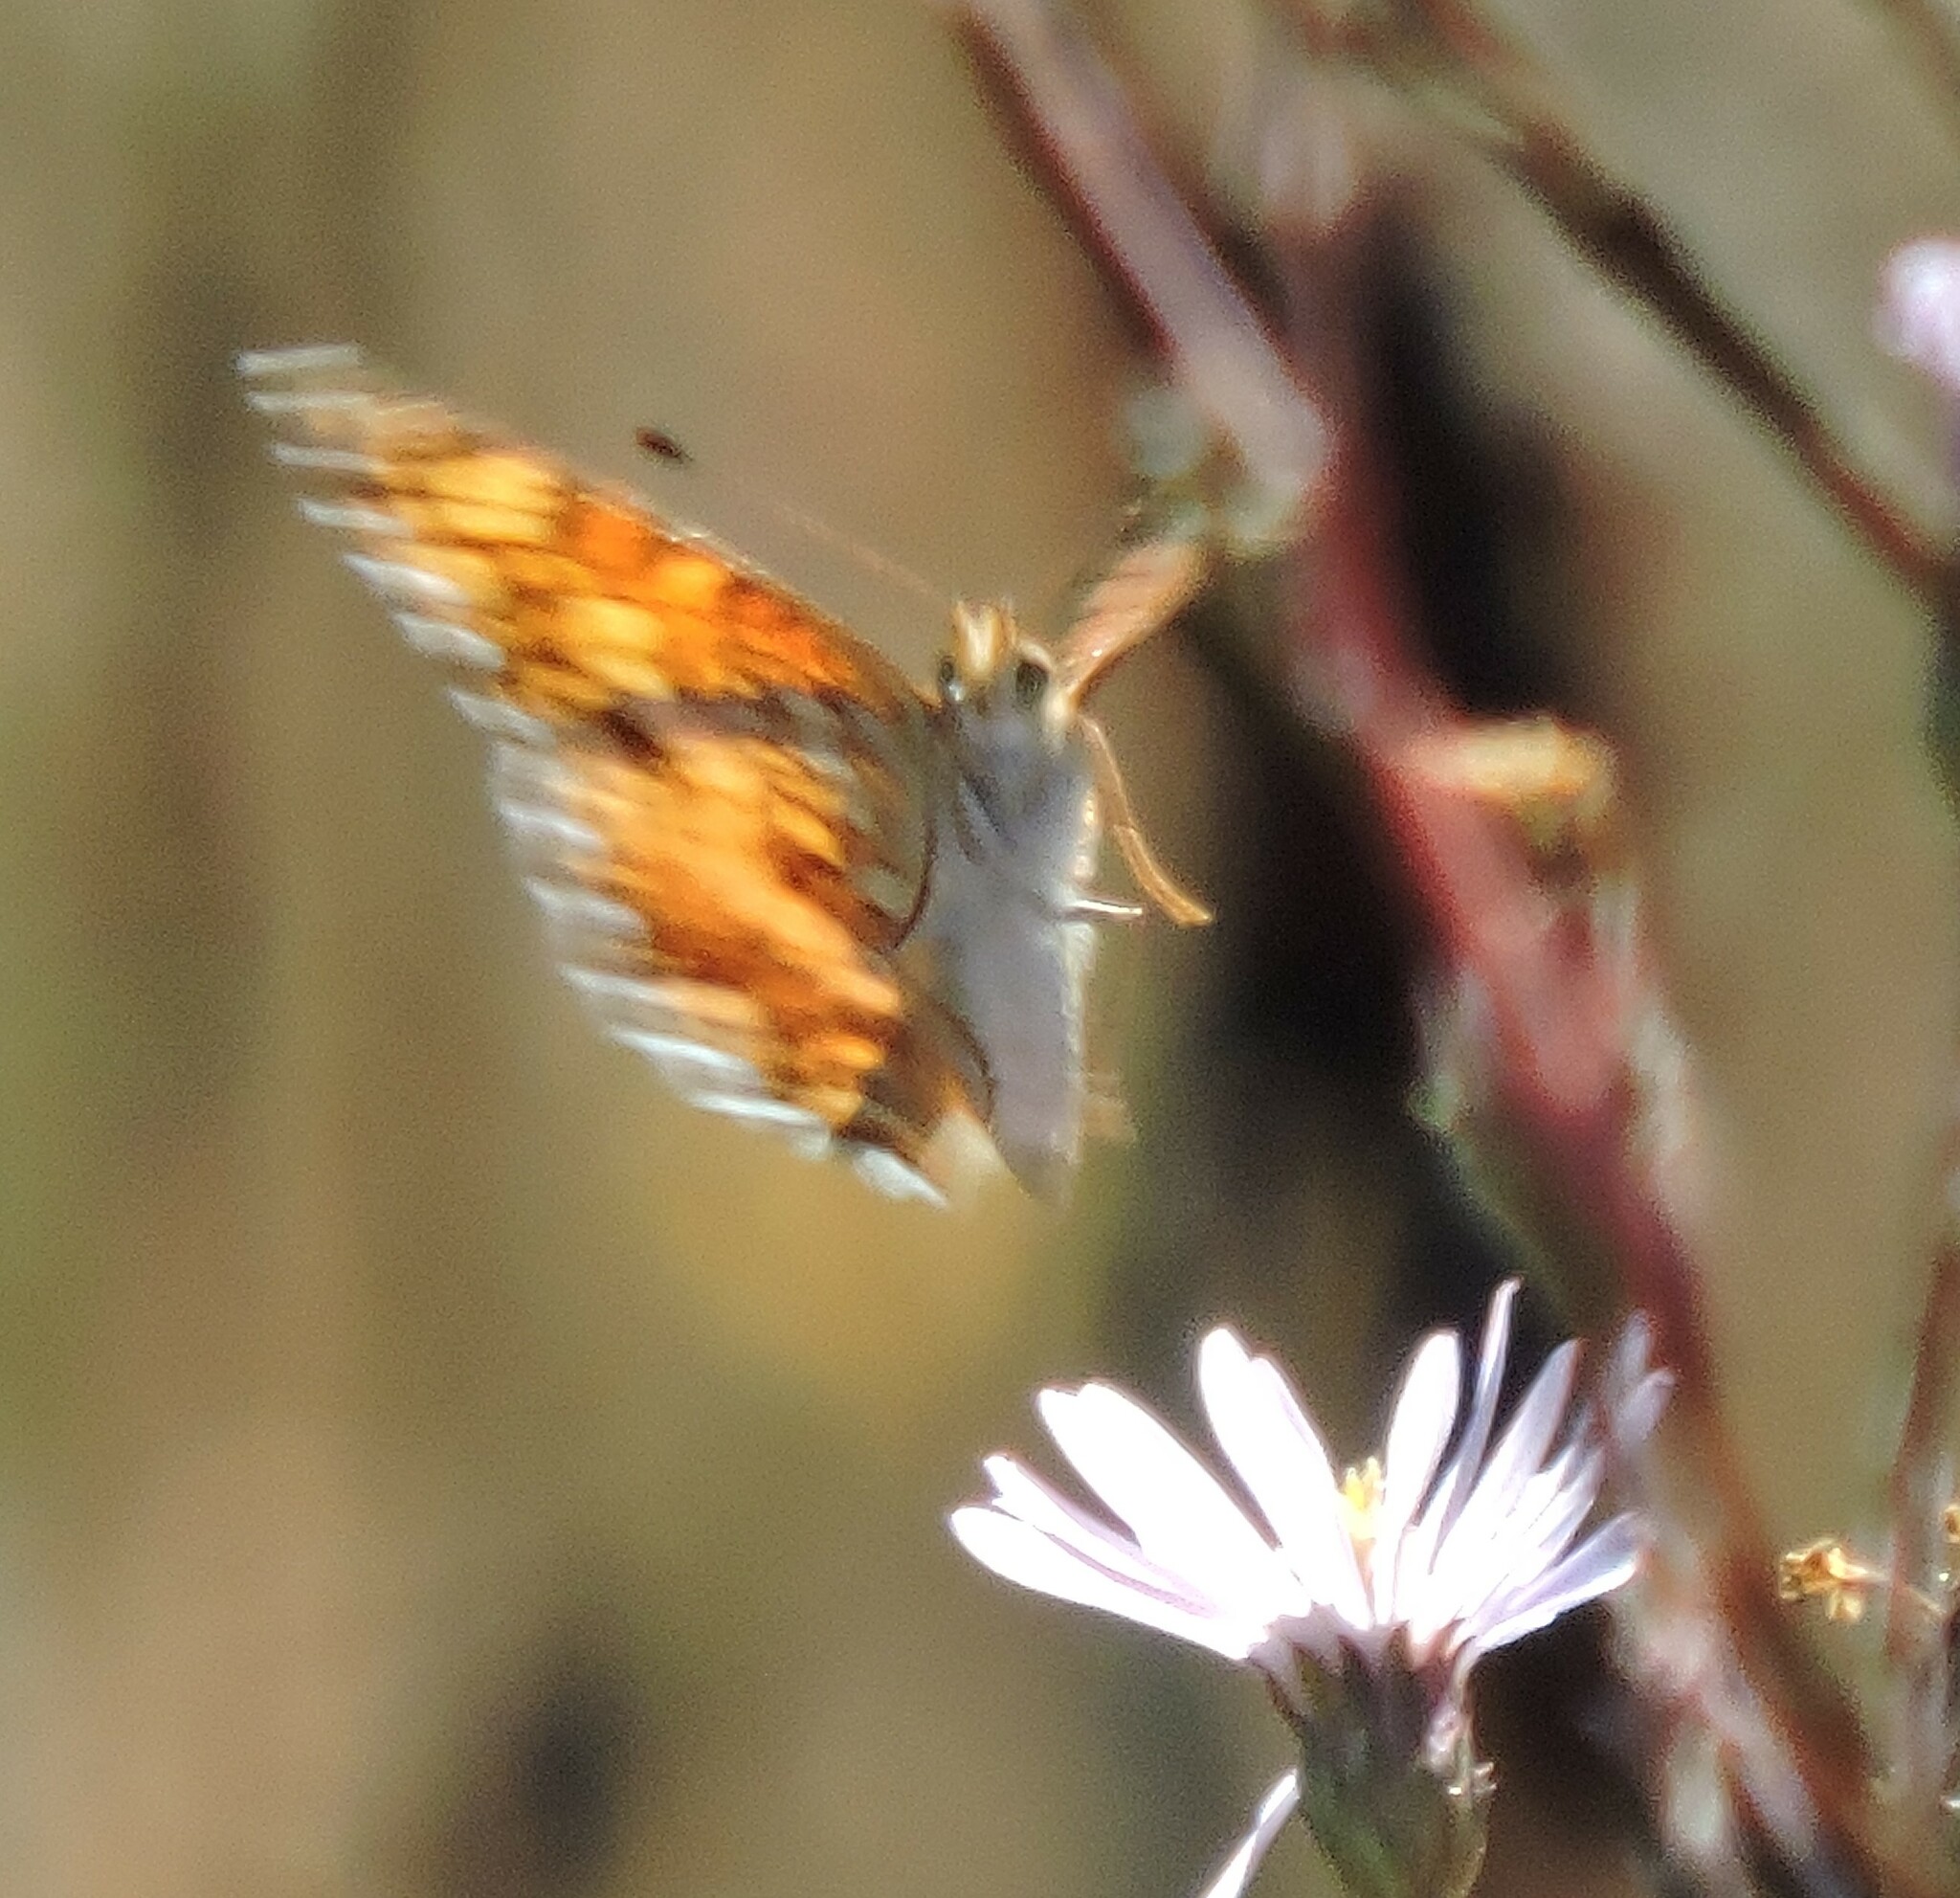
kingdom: Animalia
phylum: Arthropoda
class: Insecta
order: Lepidoptera
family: Nymphalidae
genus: Eresia
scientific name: Eresia aveyrona
